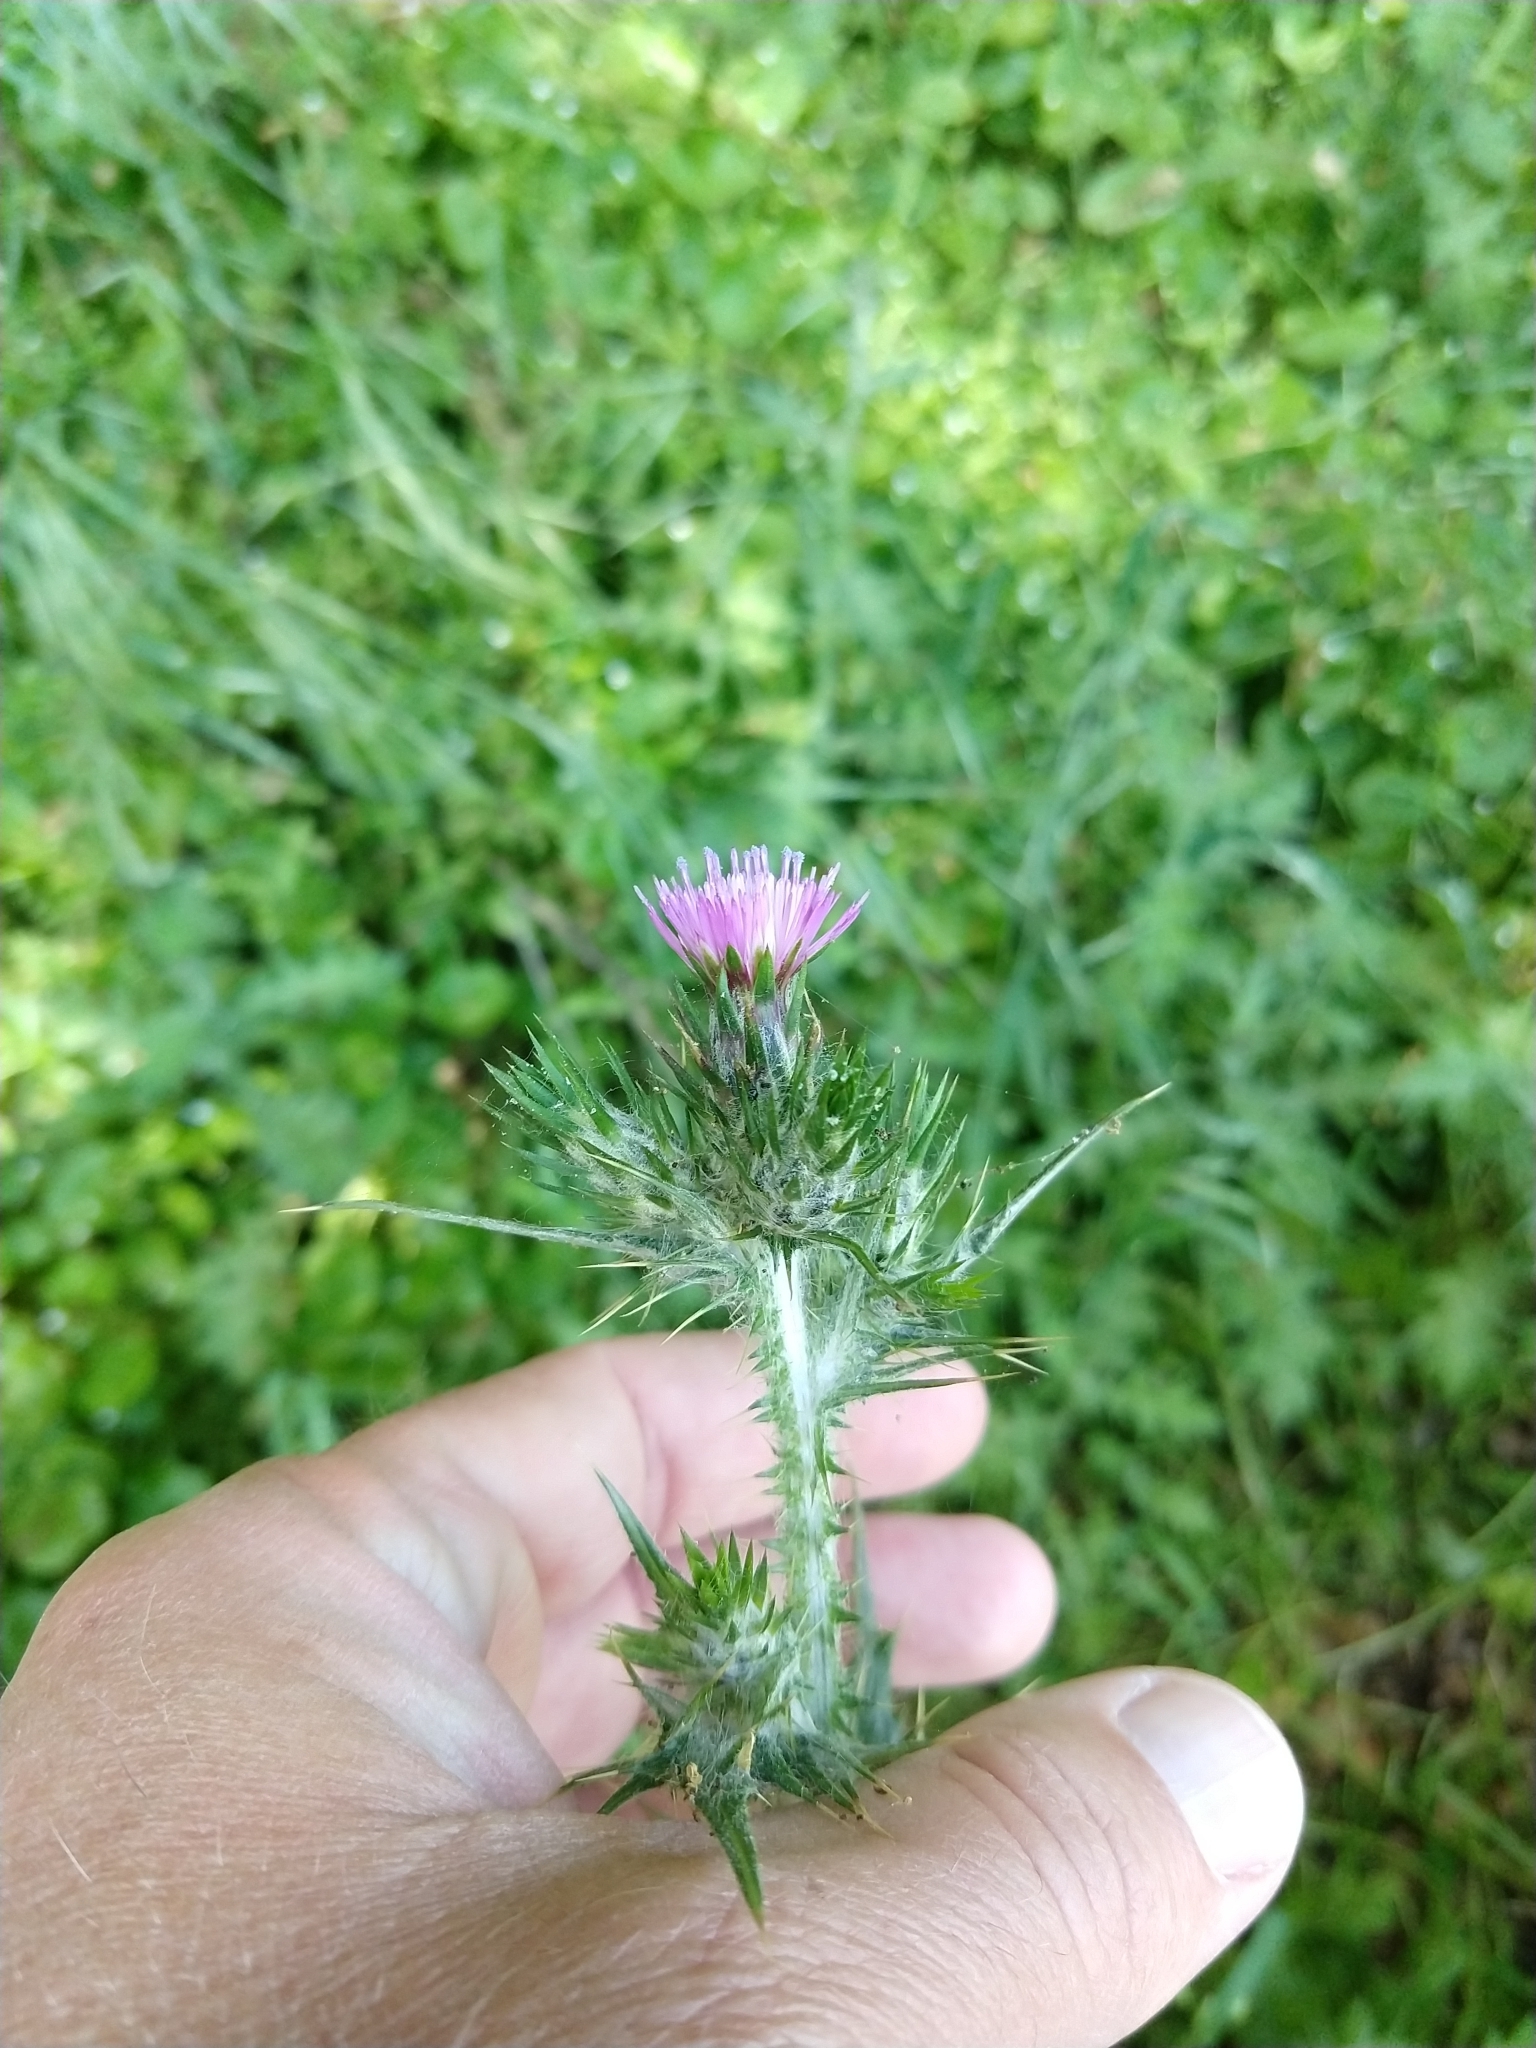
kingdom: Plantae
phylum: Tracheophyta
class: Magnoliopsida
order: Asterales
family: Asteraceae
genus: Carduus
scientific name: Carduus pycnocephalus
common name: Plymouth thistle
